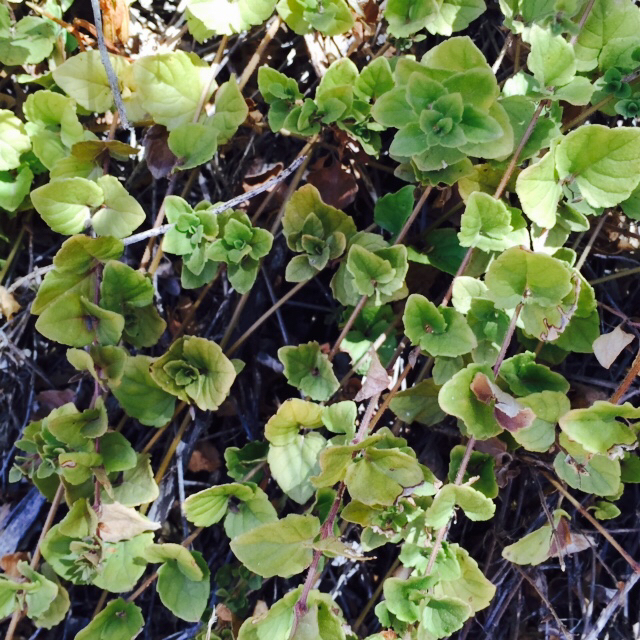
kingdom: Plantae
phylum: Tracheophyta
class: Magnoliopsida
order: Lamiales
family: Lamiaceae
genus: Micromeria
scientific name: Micromeria douglasii
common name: Yerba buena
